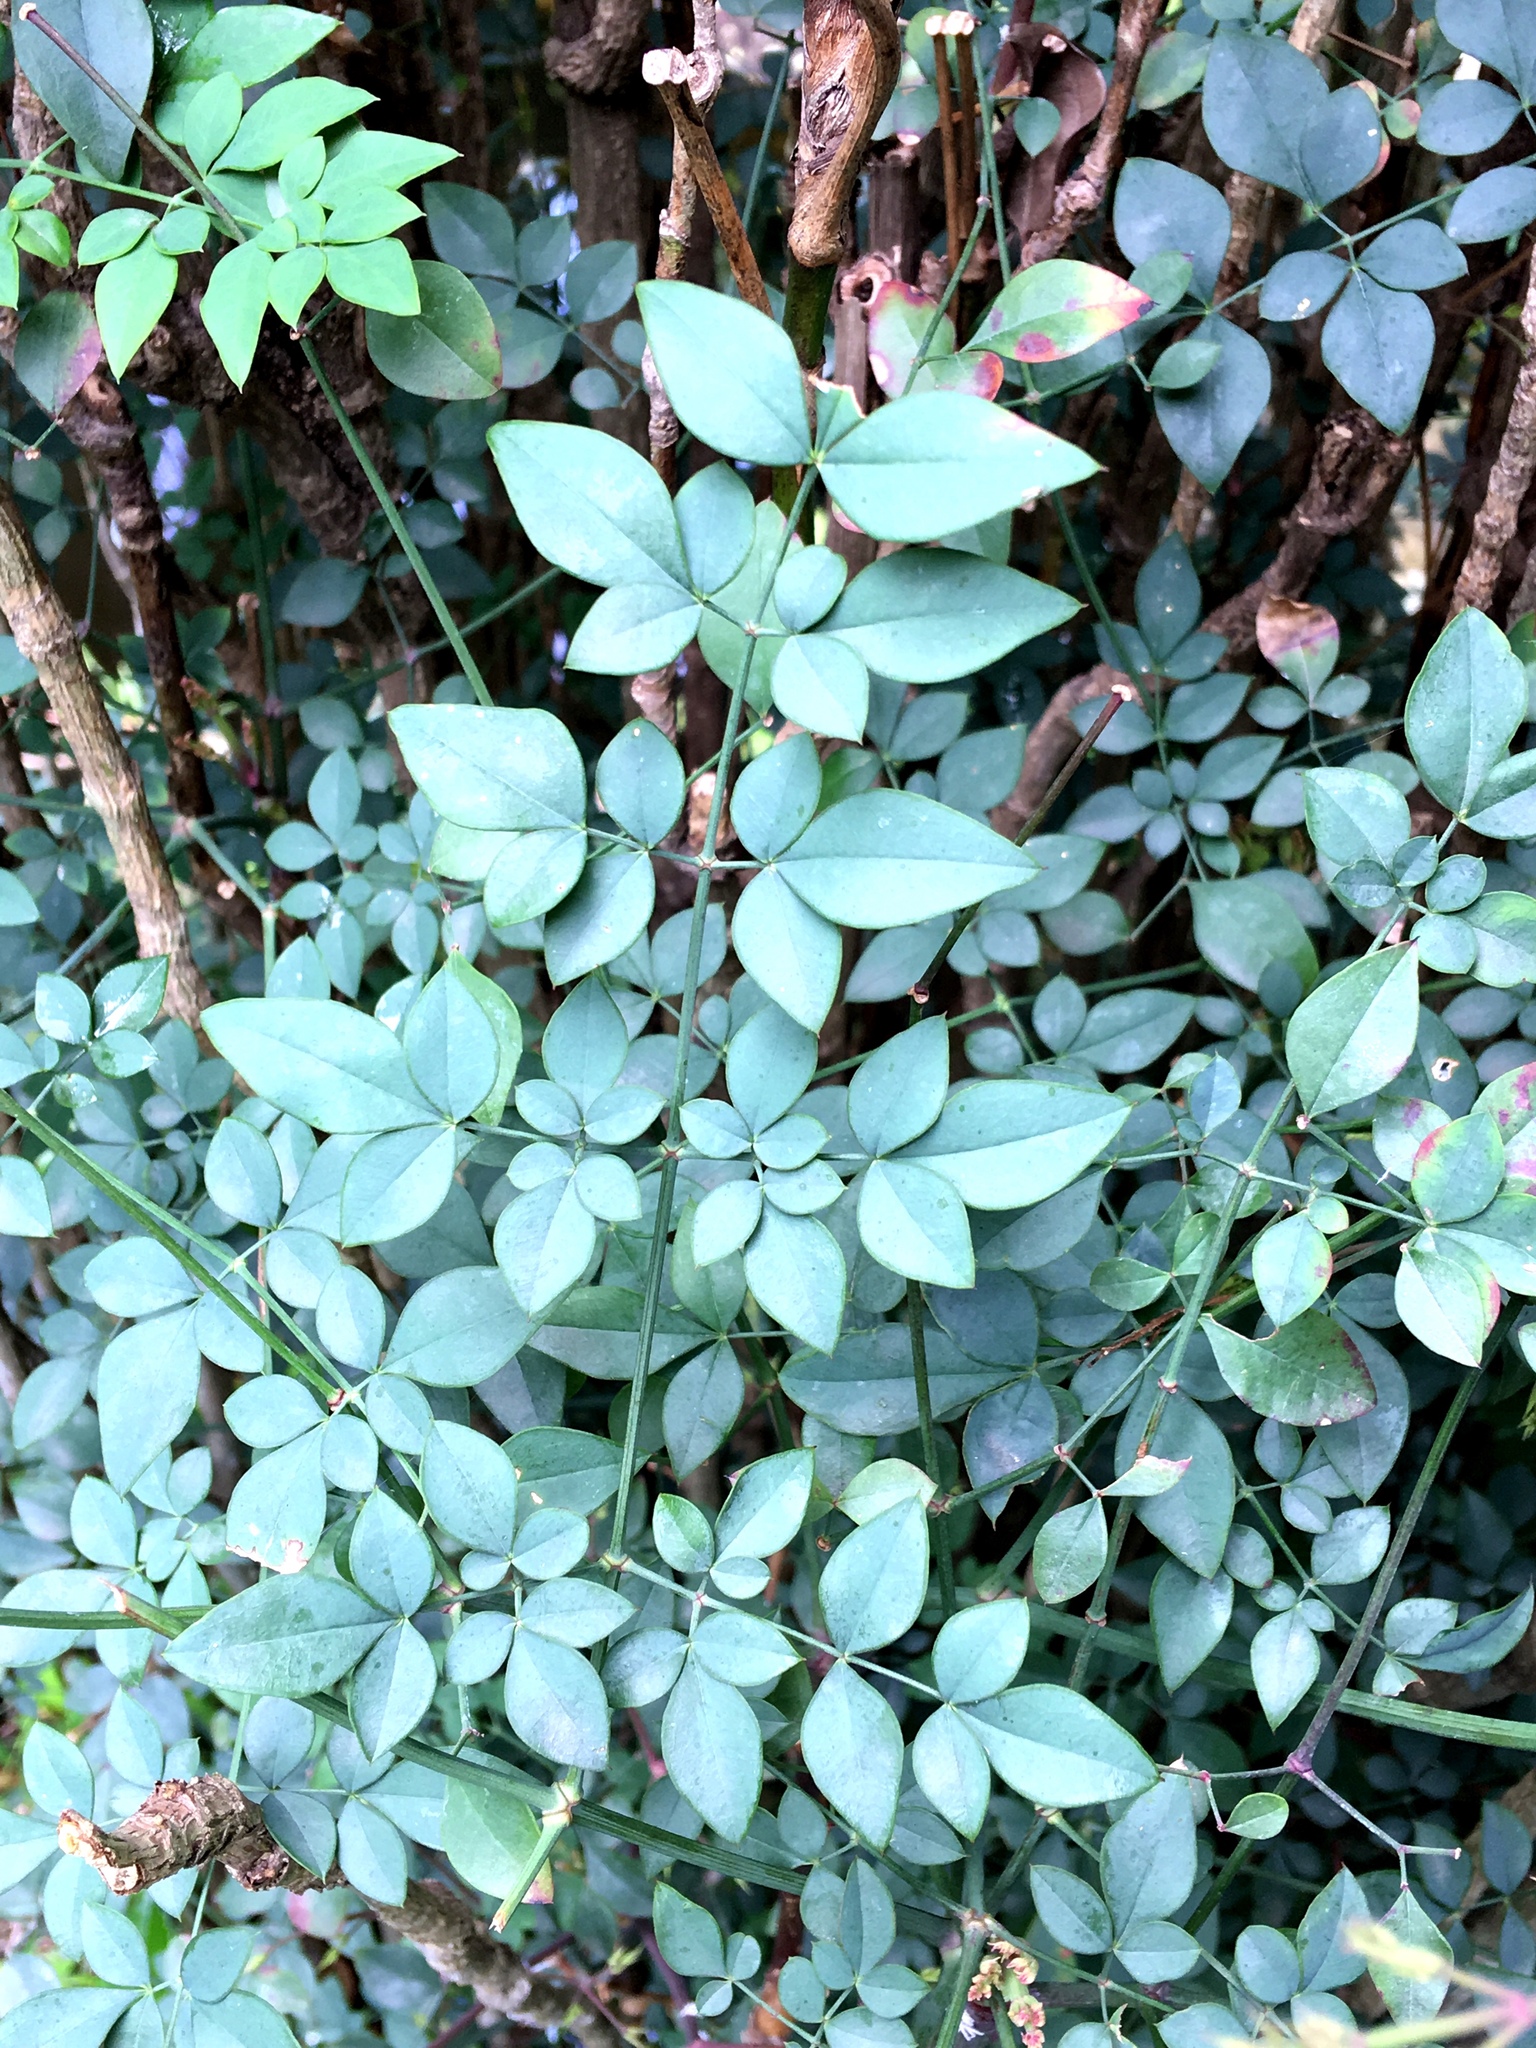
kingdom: Plantae
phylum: Tracheophyta
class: Magnoliopsida
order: Ranunculales
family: Berberidaceae
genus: Nandina
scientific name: Nandina domestica
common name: Sacred bamboo
